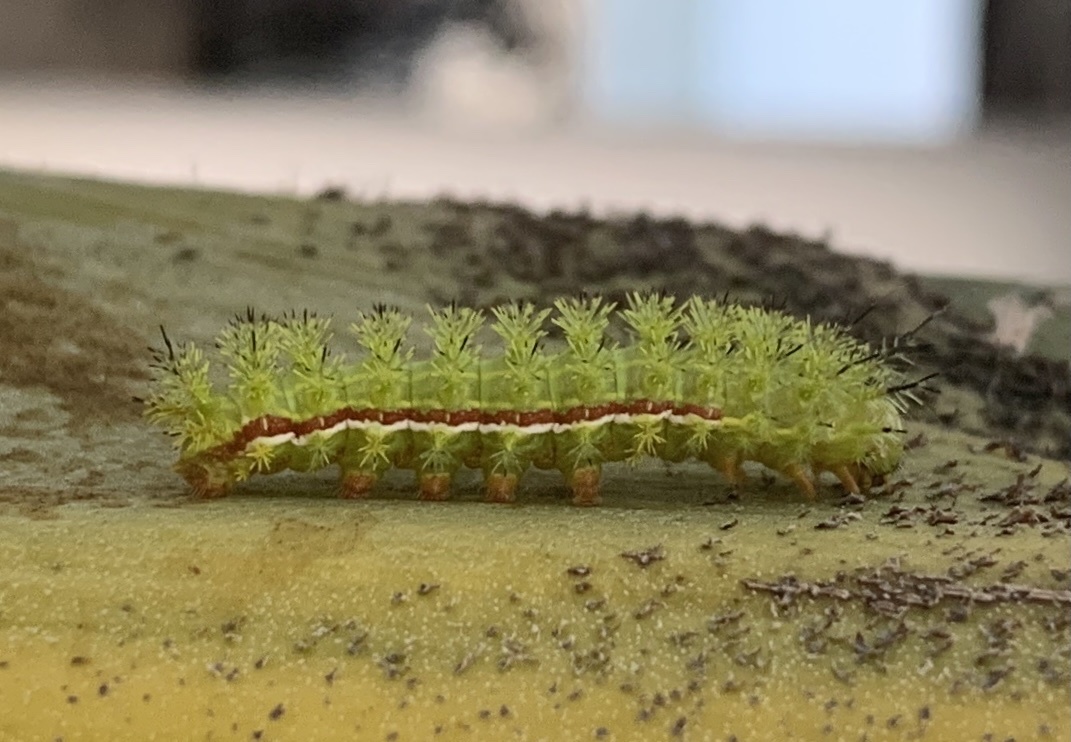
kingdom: Animalia
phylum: Arthropoda
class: Insecta
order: Lepidoptera
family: Saturniidae
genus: Automeris
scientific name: Automeris io
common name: Io moth
